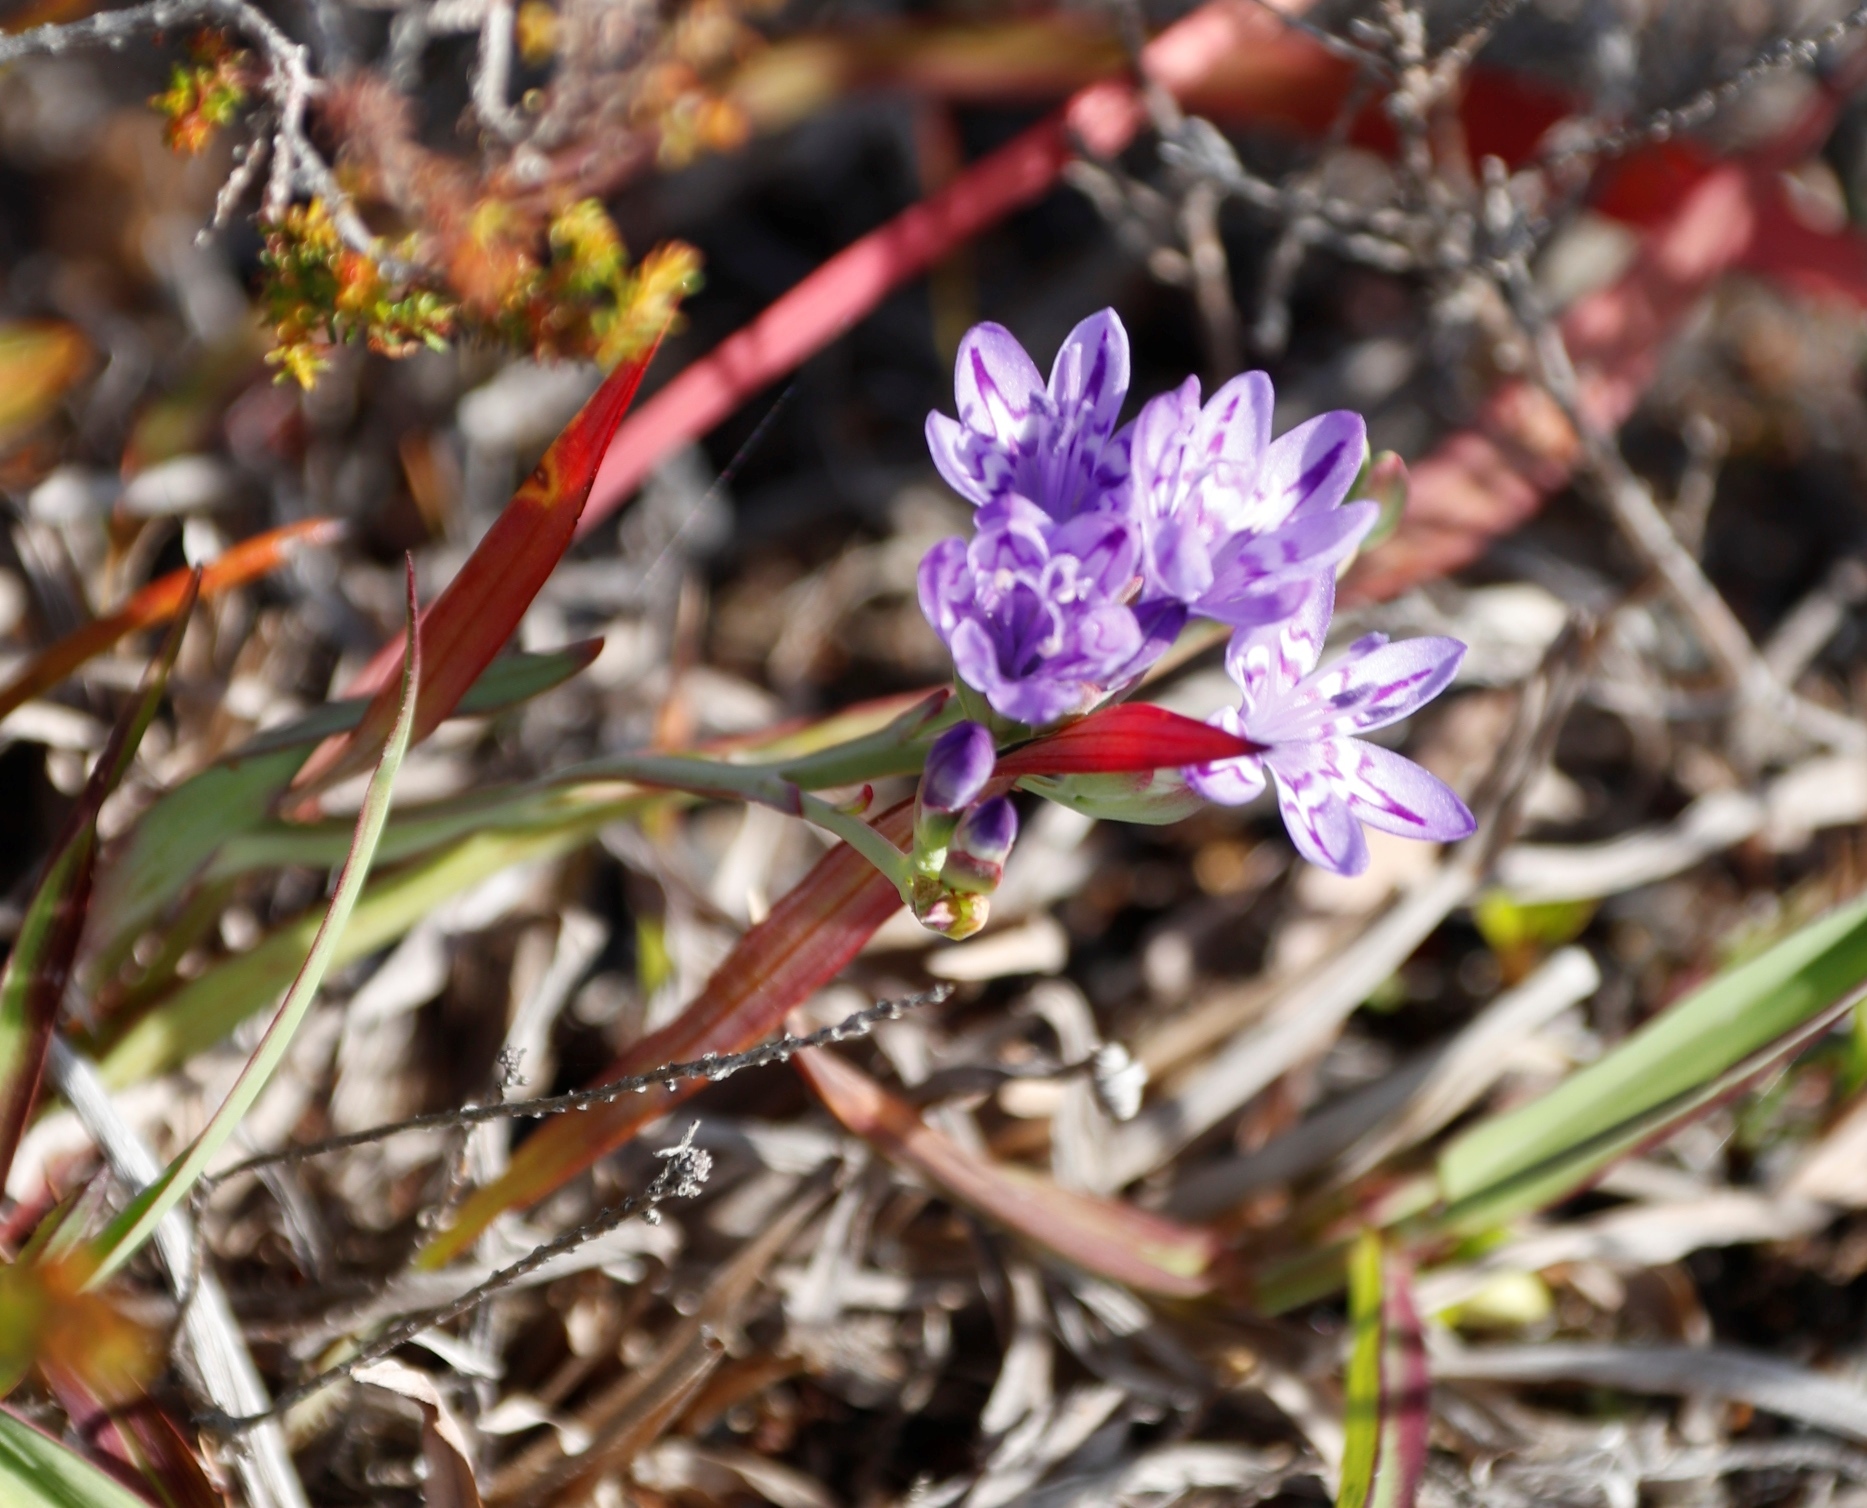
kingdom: Plantae
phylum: Tracheophyta
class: Liliopsida
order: Asparagales
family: Iridaceae
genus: Codonorhiza
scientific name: Codonorhiza corymbosa
